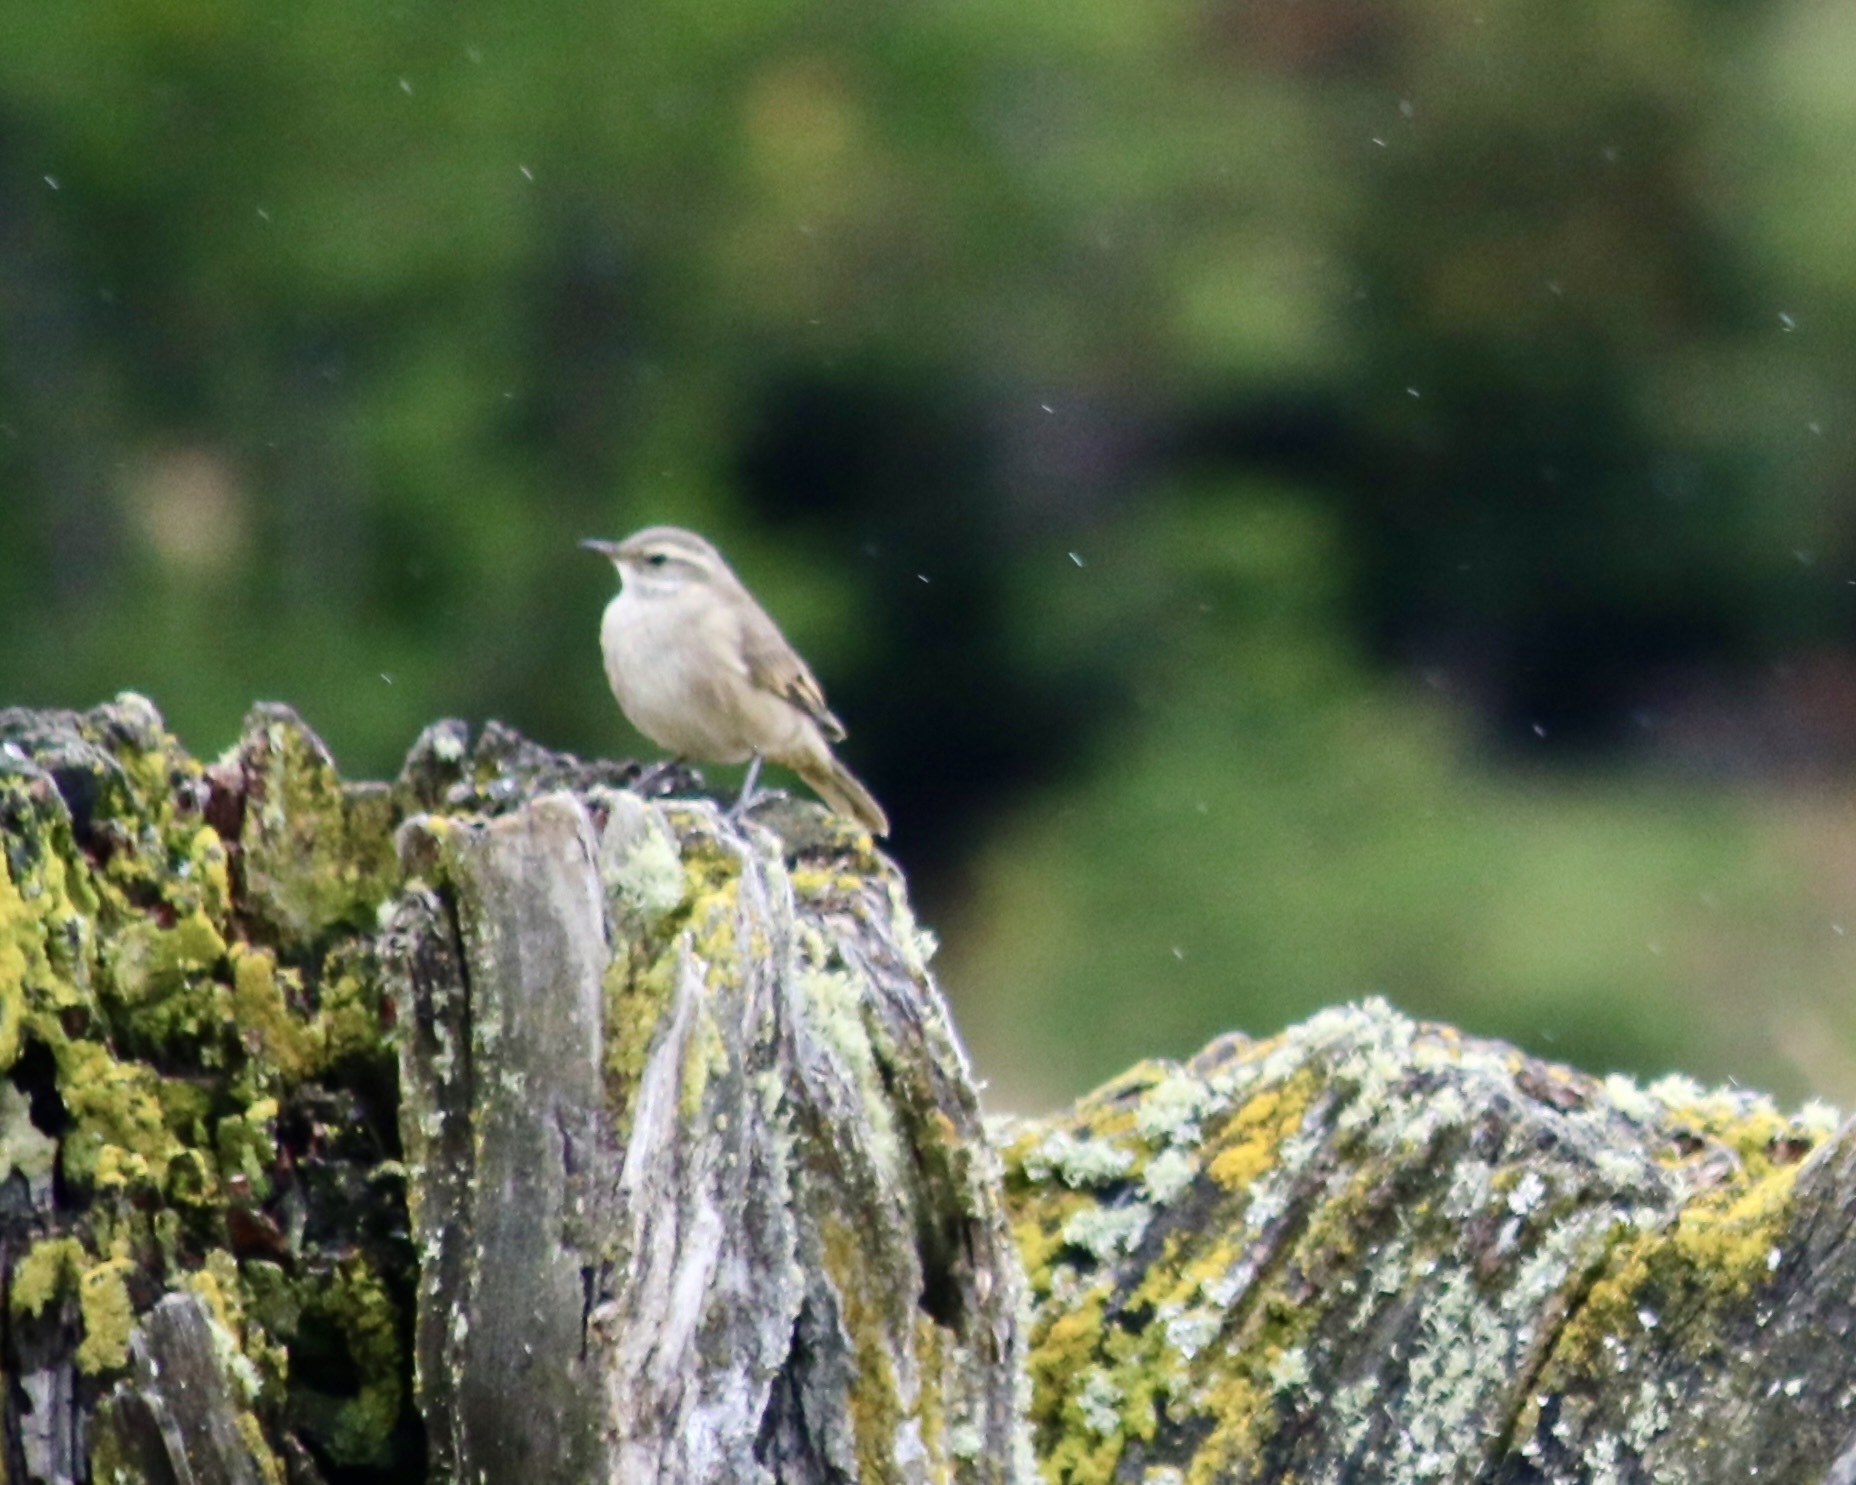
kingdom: Animalia
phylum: Chordata
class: Aves
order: Passeriformes
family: Furnariidae
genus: Cinclodes
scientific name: Cinclodes fuscus
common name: Buff-winged cinclodes
